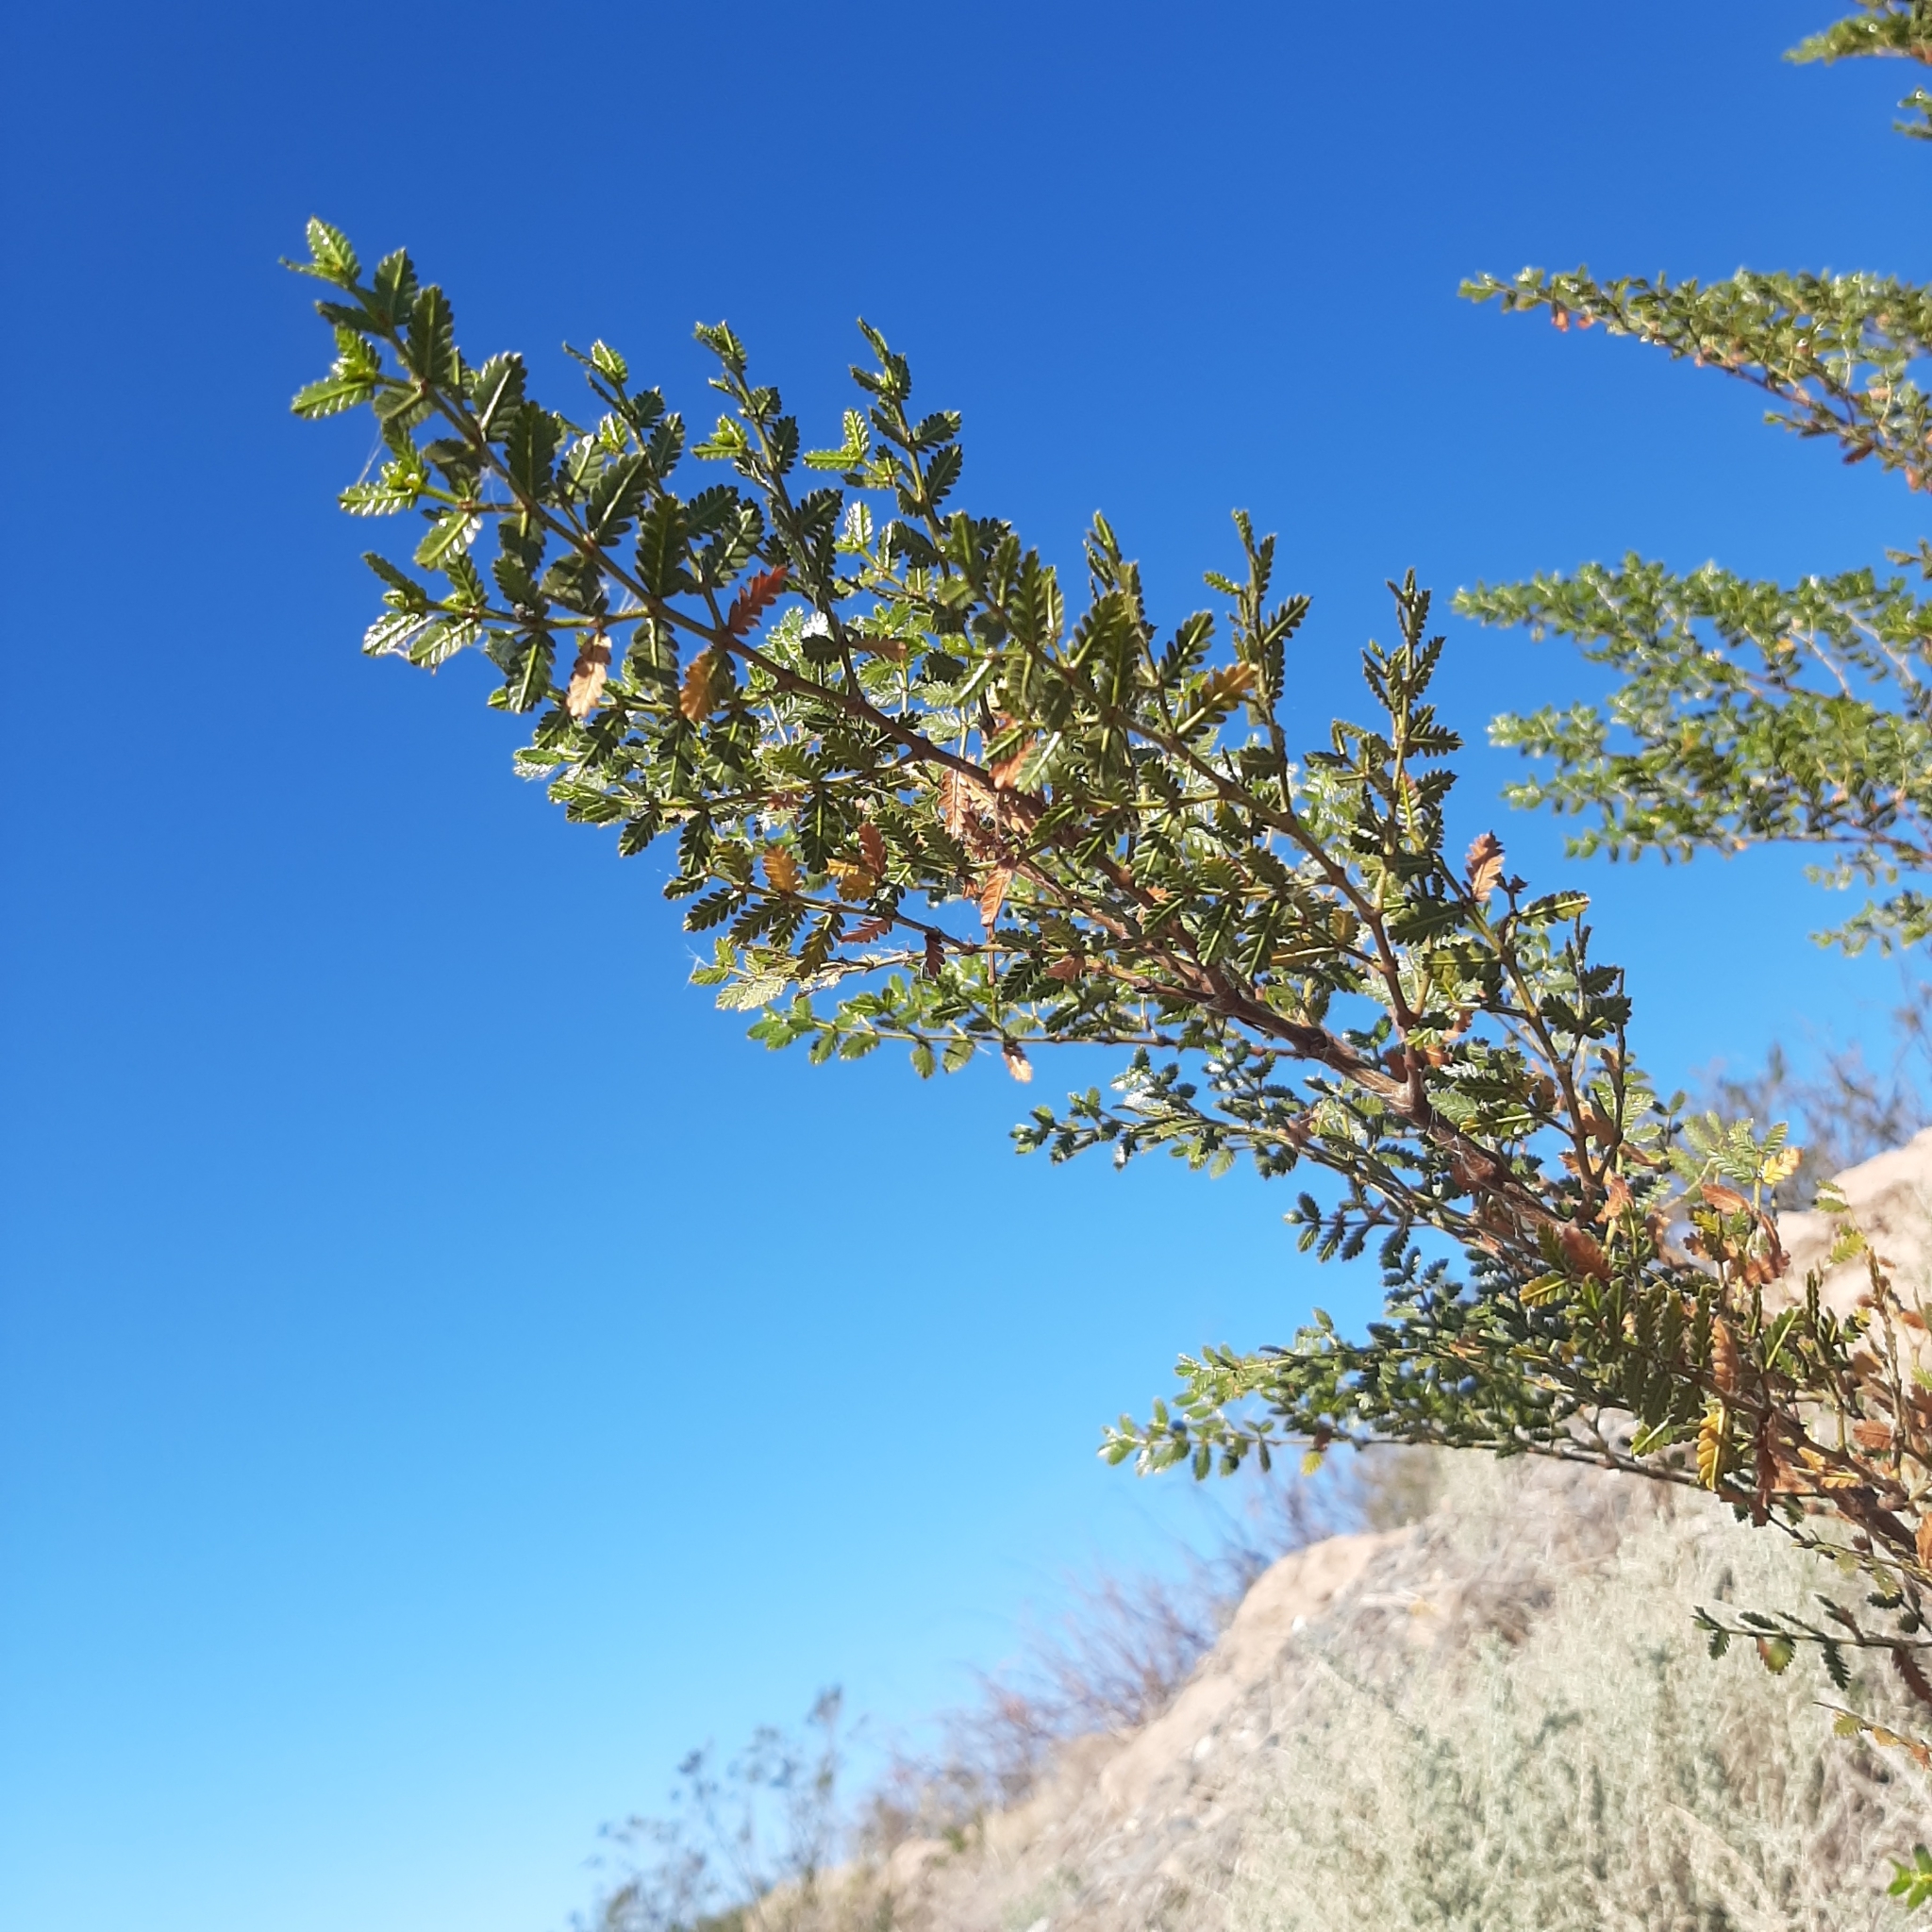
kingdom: Plantae
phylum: Tracheophyta
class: Magnoliopsida
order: Zygophyllales
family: Zygophyllaceae
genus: Larrea
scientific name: Larrea nitida
